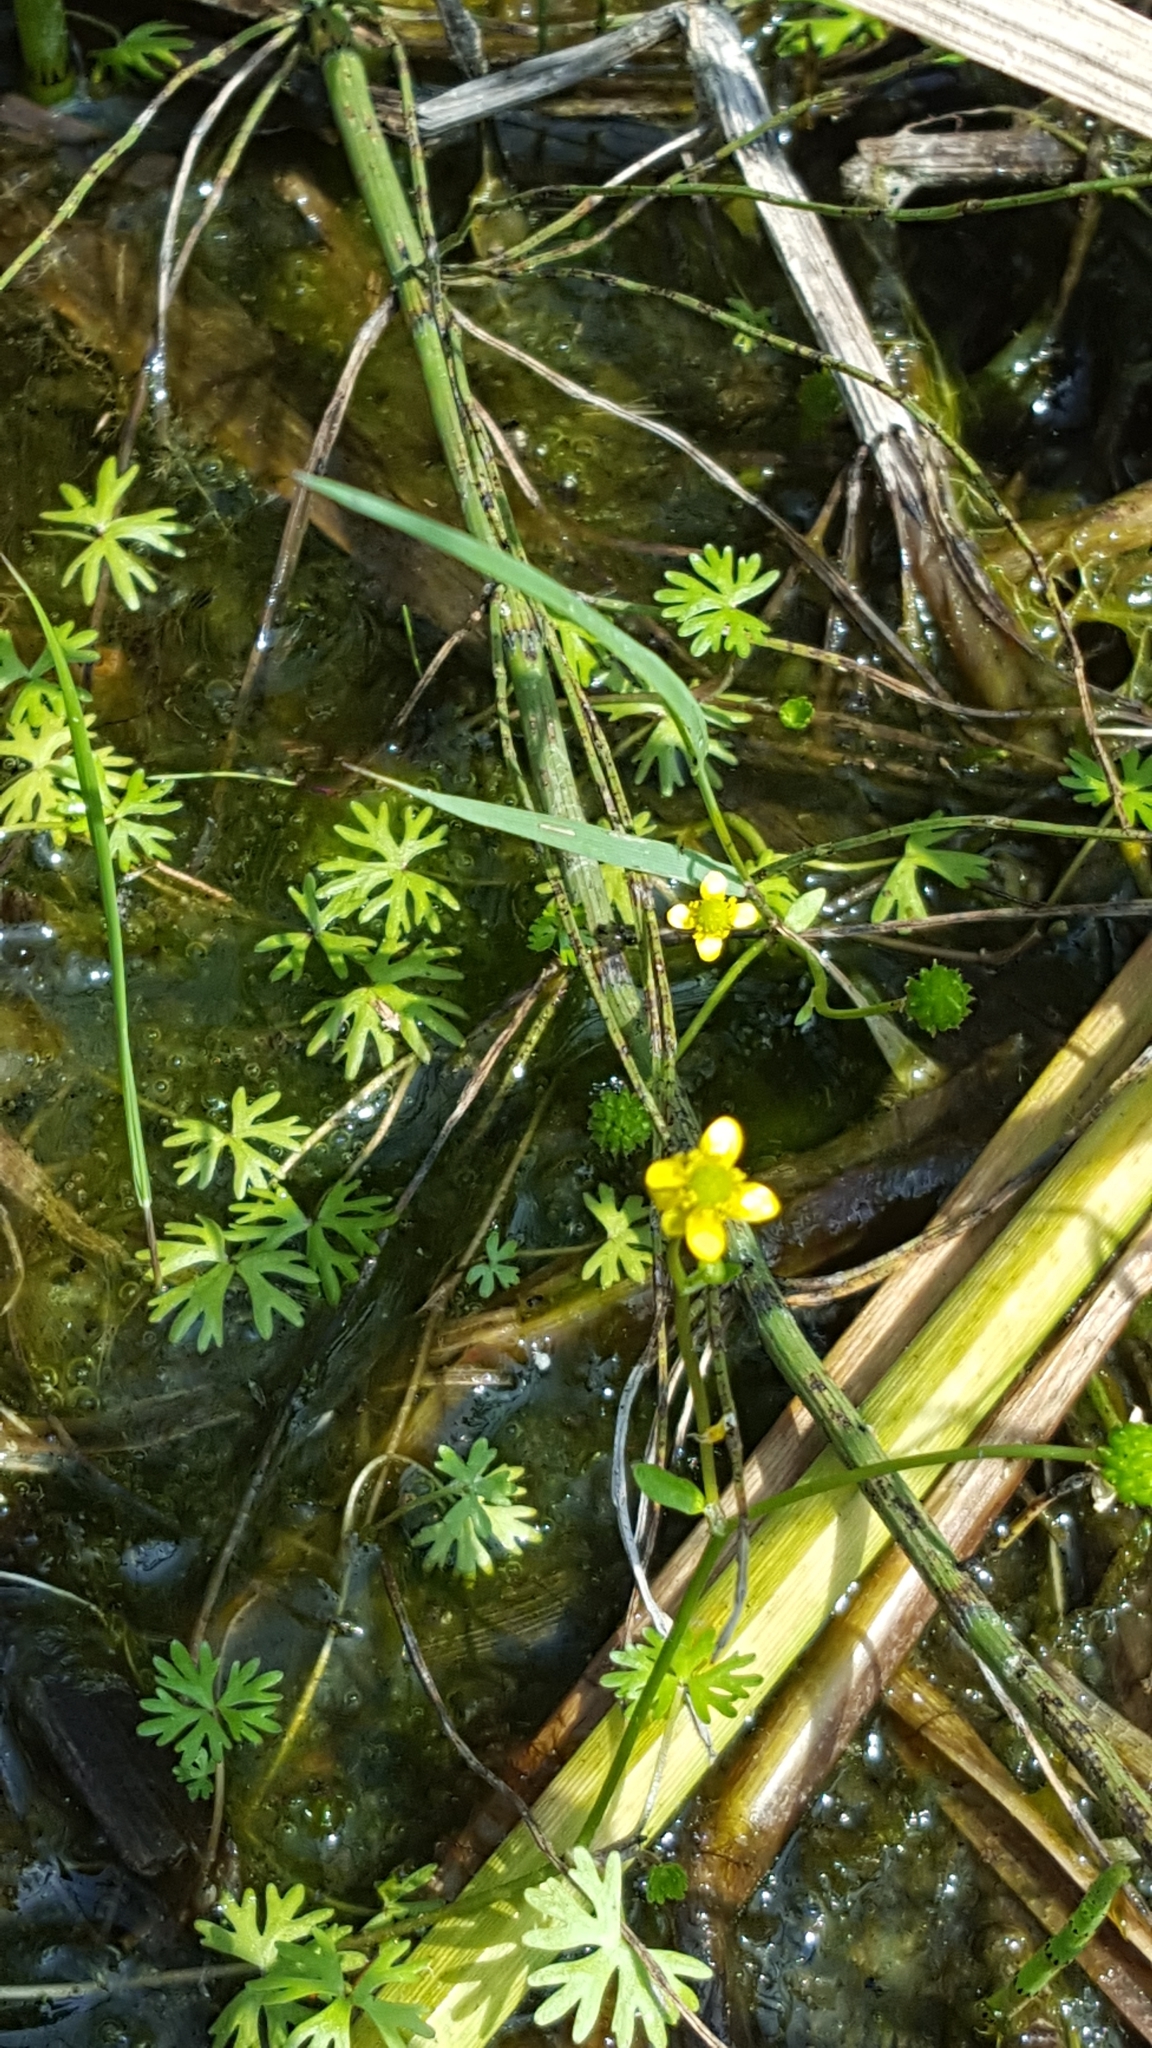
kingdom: Plantae
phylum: Tracheophyta
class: Magnoliopsida
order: Ranunculales
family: Ranunculaceae
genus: Ranunculus
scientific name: Ranunculus gmelinii
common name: Gmelin's buttercup
